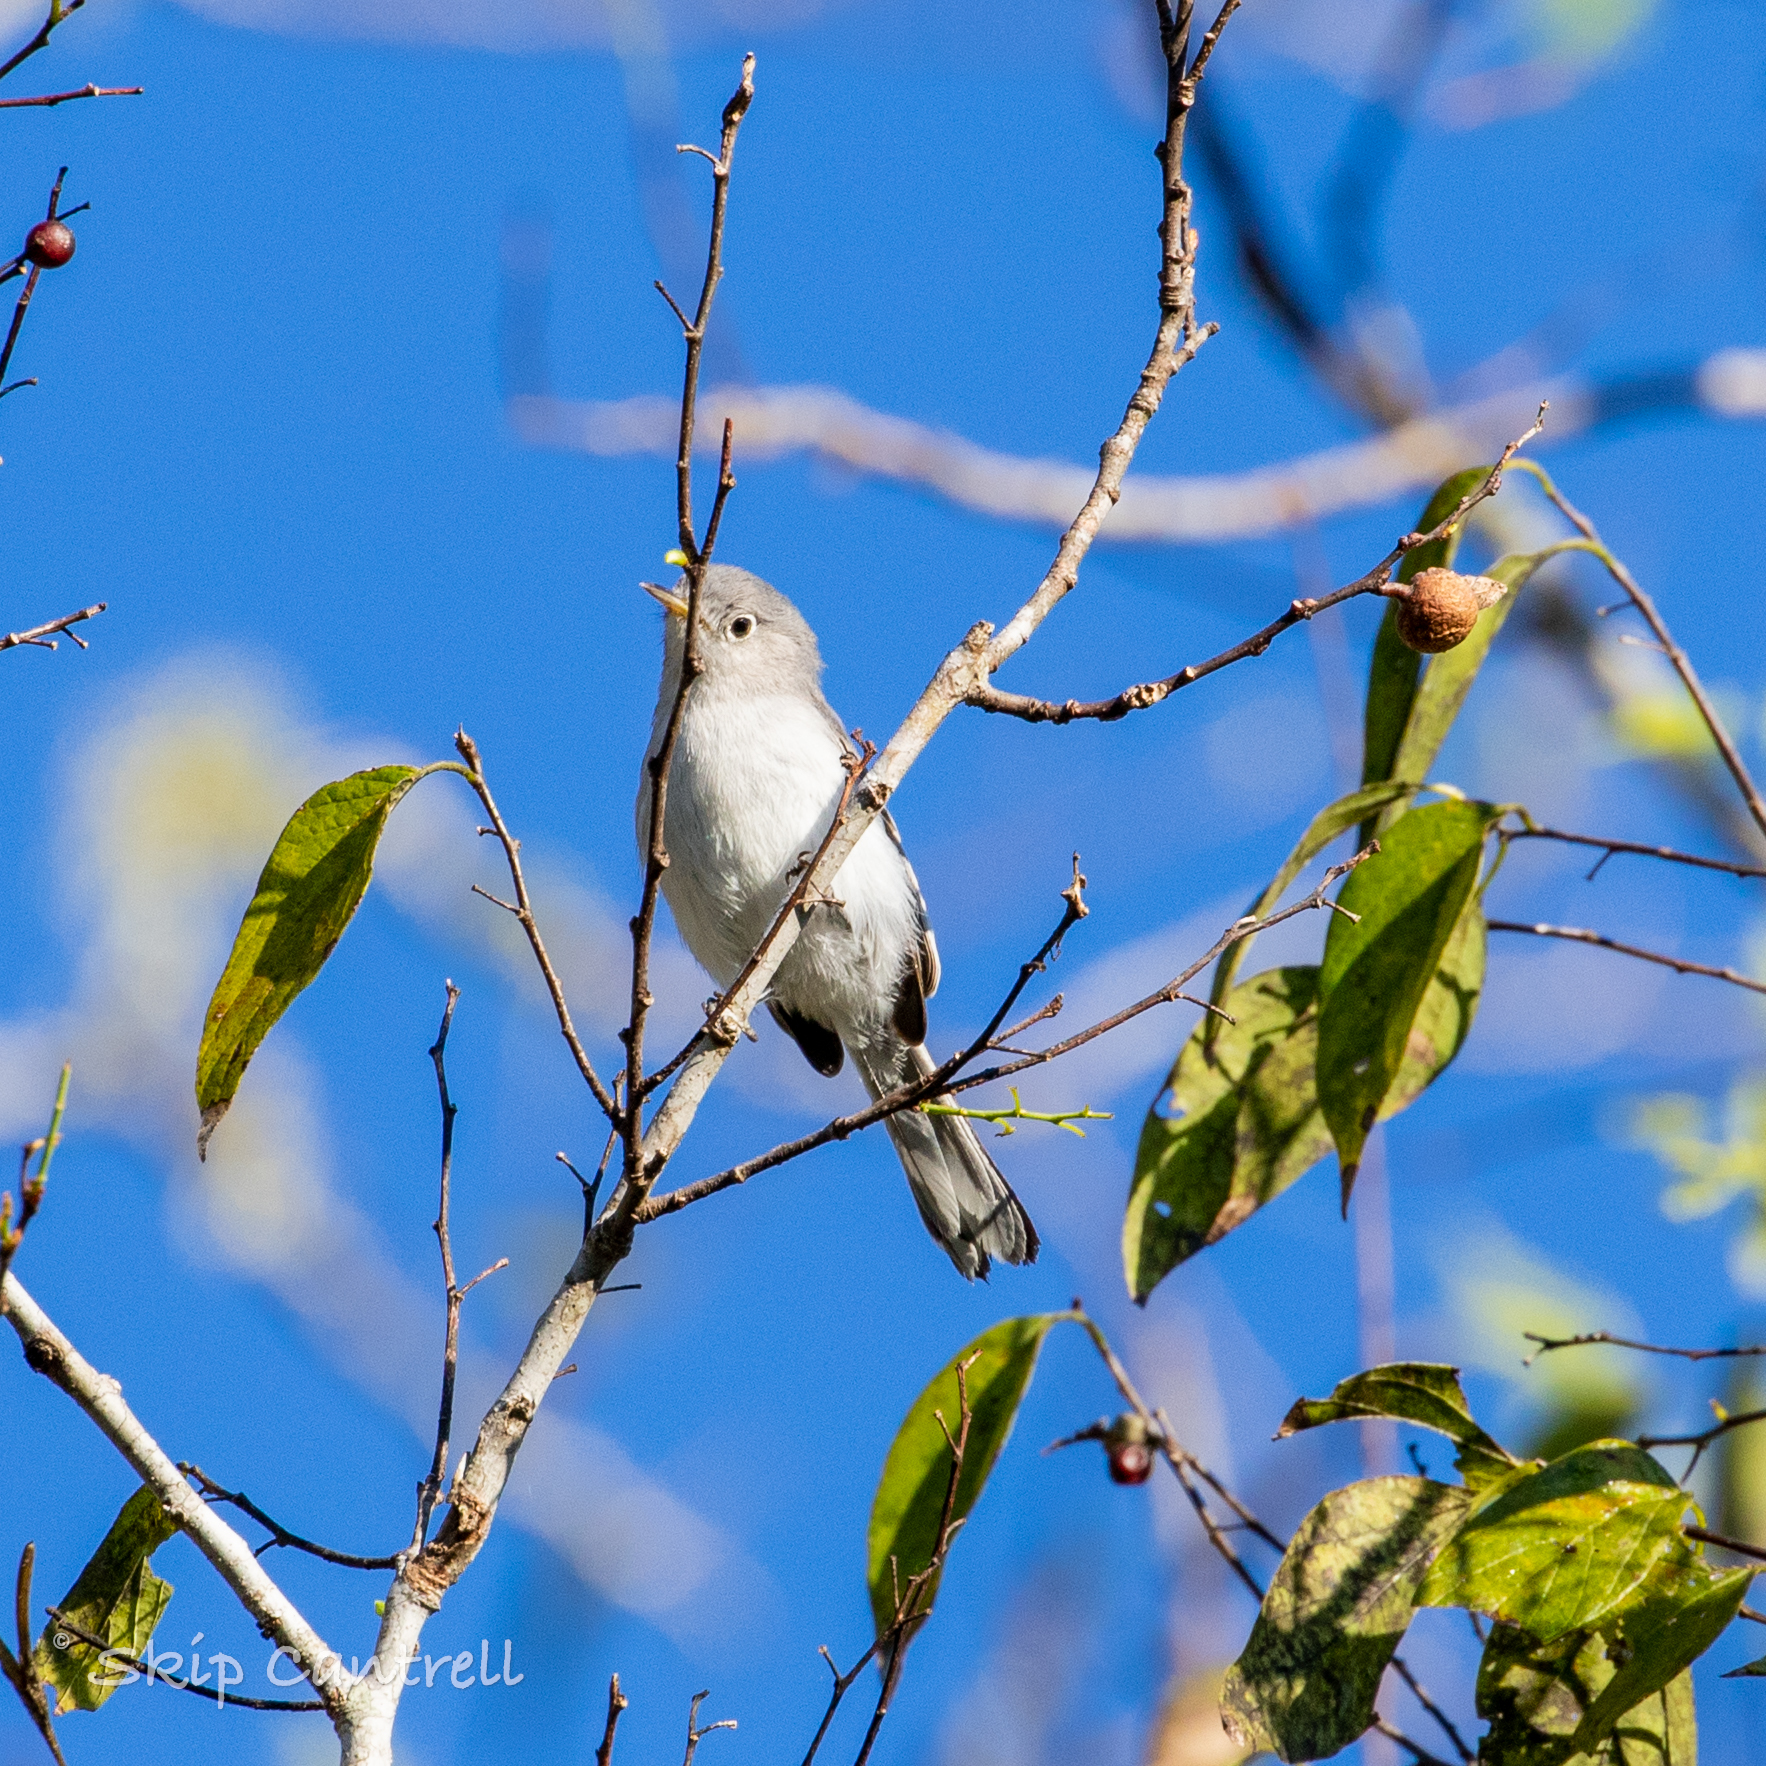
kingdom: Animalia
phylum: Chordata
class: Aves
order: Passeriformes
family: Polioptilidae
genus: Polioptila
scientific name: Polioptila caerulea
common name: Blue-gray gnatcatcher
